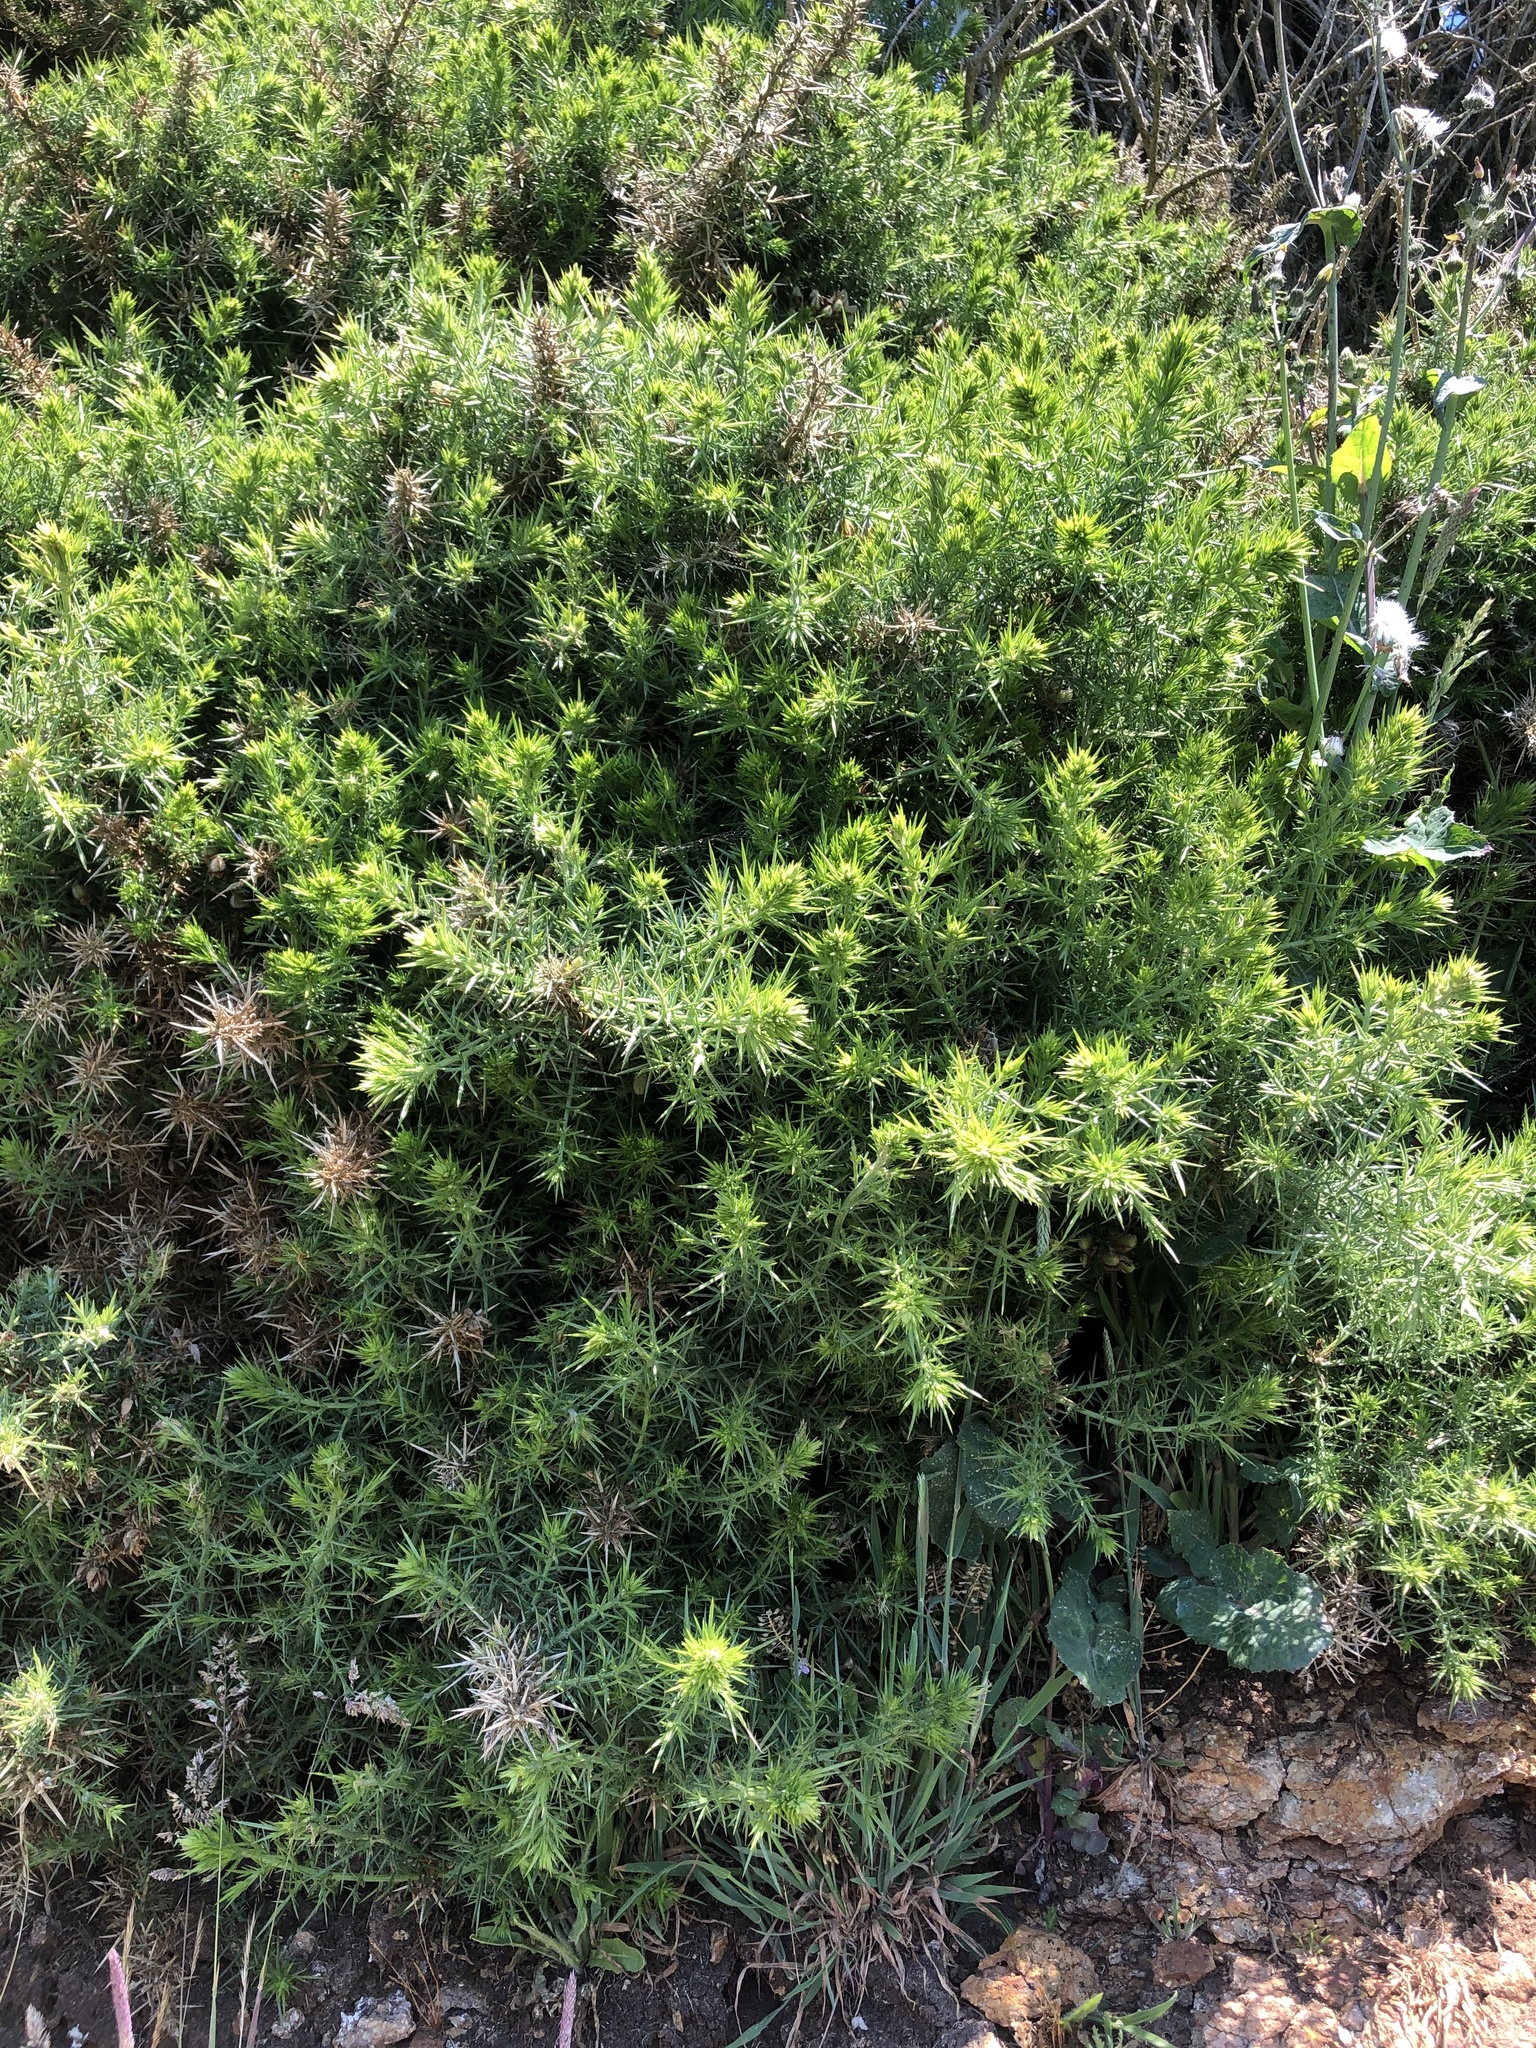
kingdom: Plantae
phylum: Tracheophyta
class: Magnoliopsida
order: Fabales
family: Fabaceae
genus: Ulex
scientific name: Ulex europaeus
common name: Common gorse
